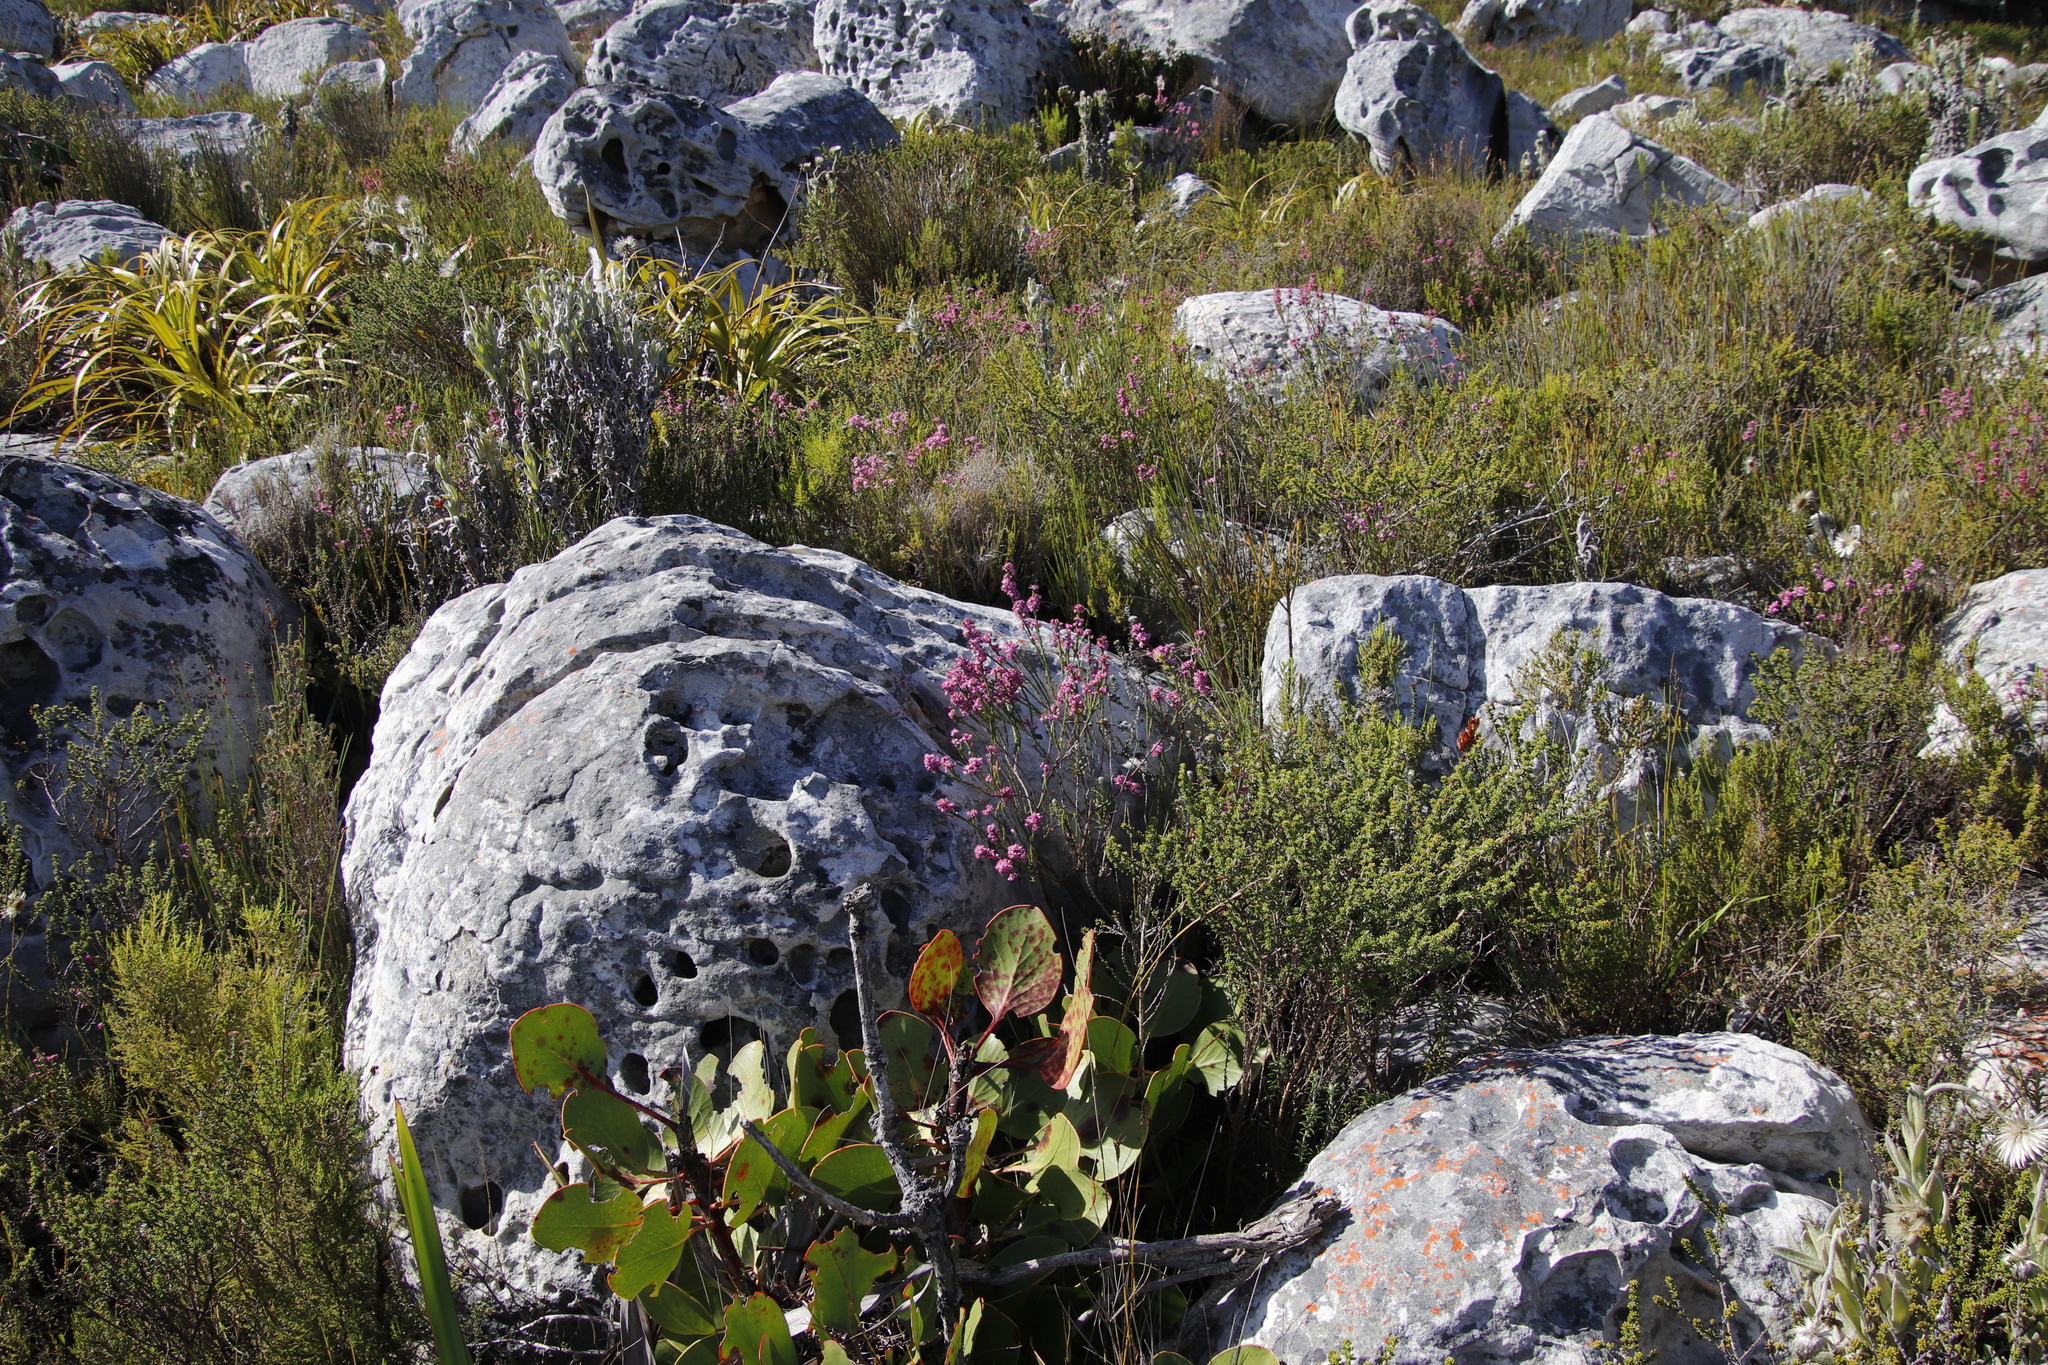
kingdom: Plantae
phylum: Tracheophyta
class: Magnoliopsida
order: Ericales
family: Ericaceae
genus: Erica
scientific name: Erica corifolia
